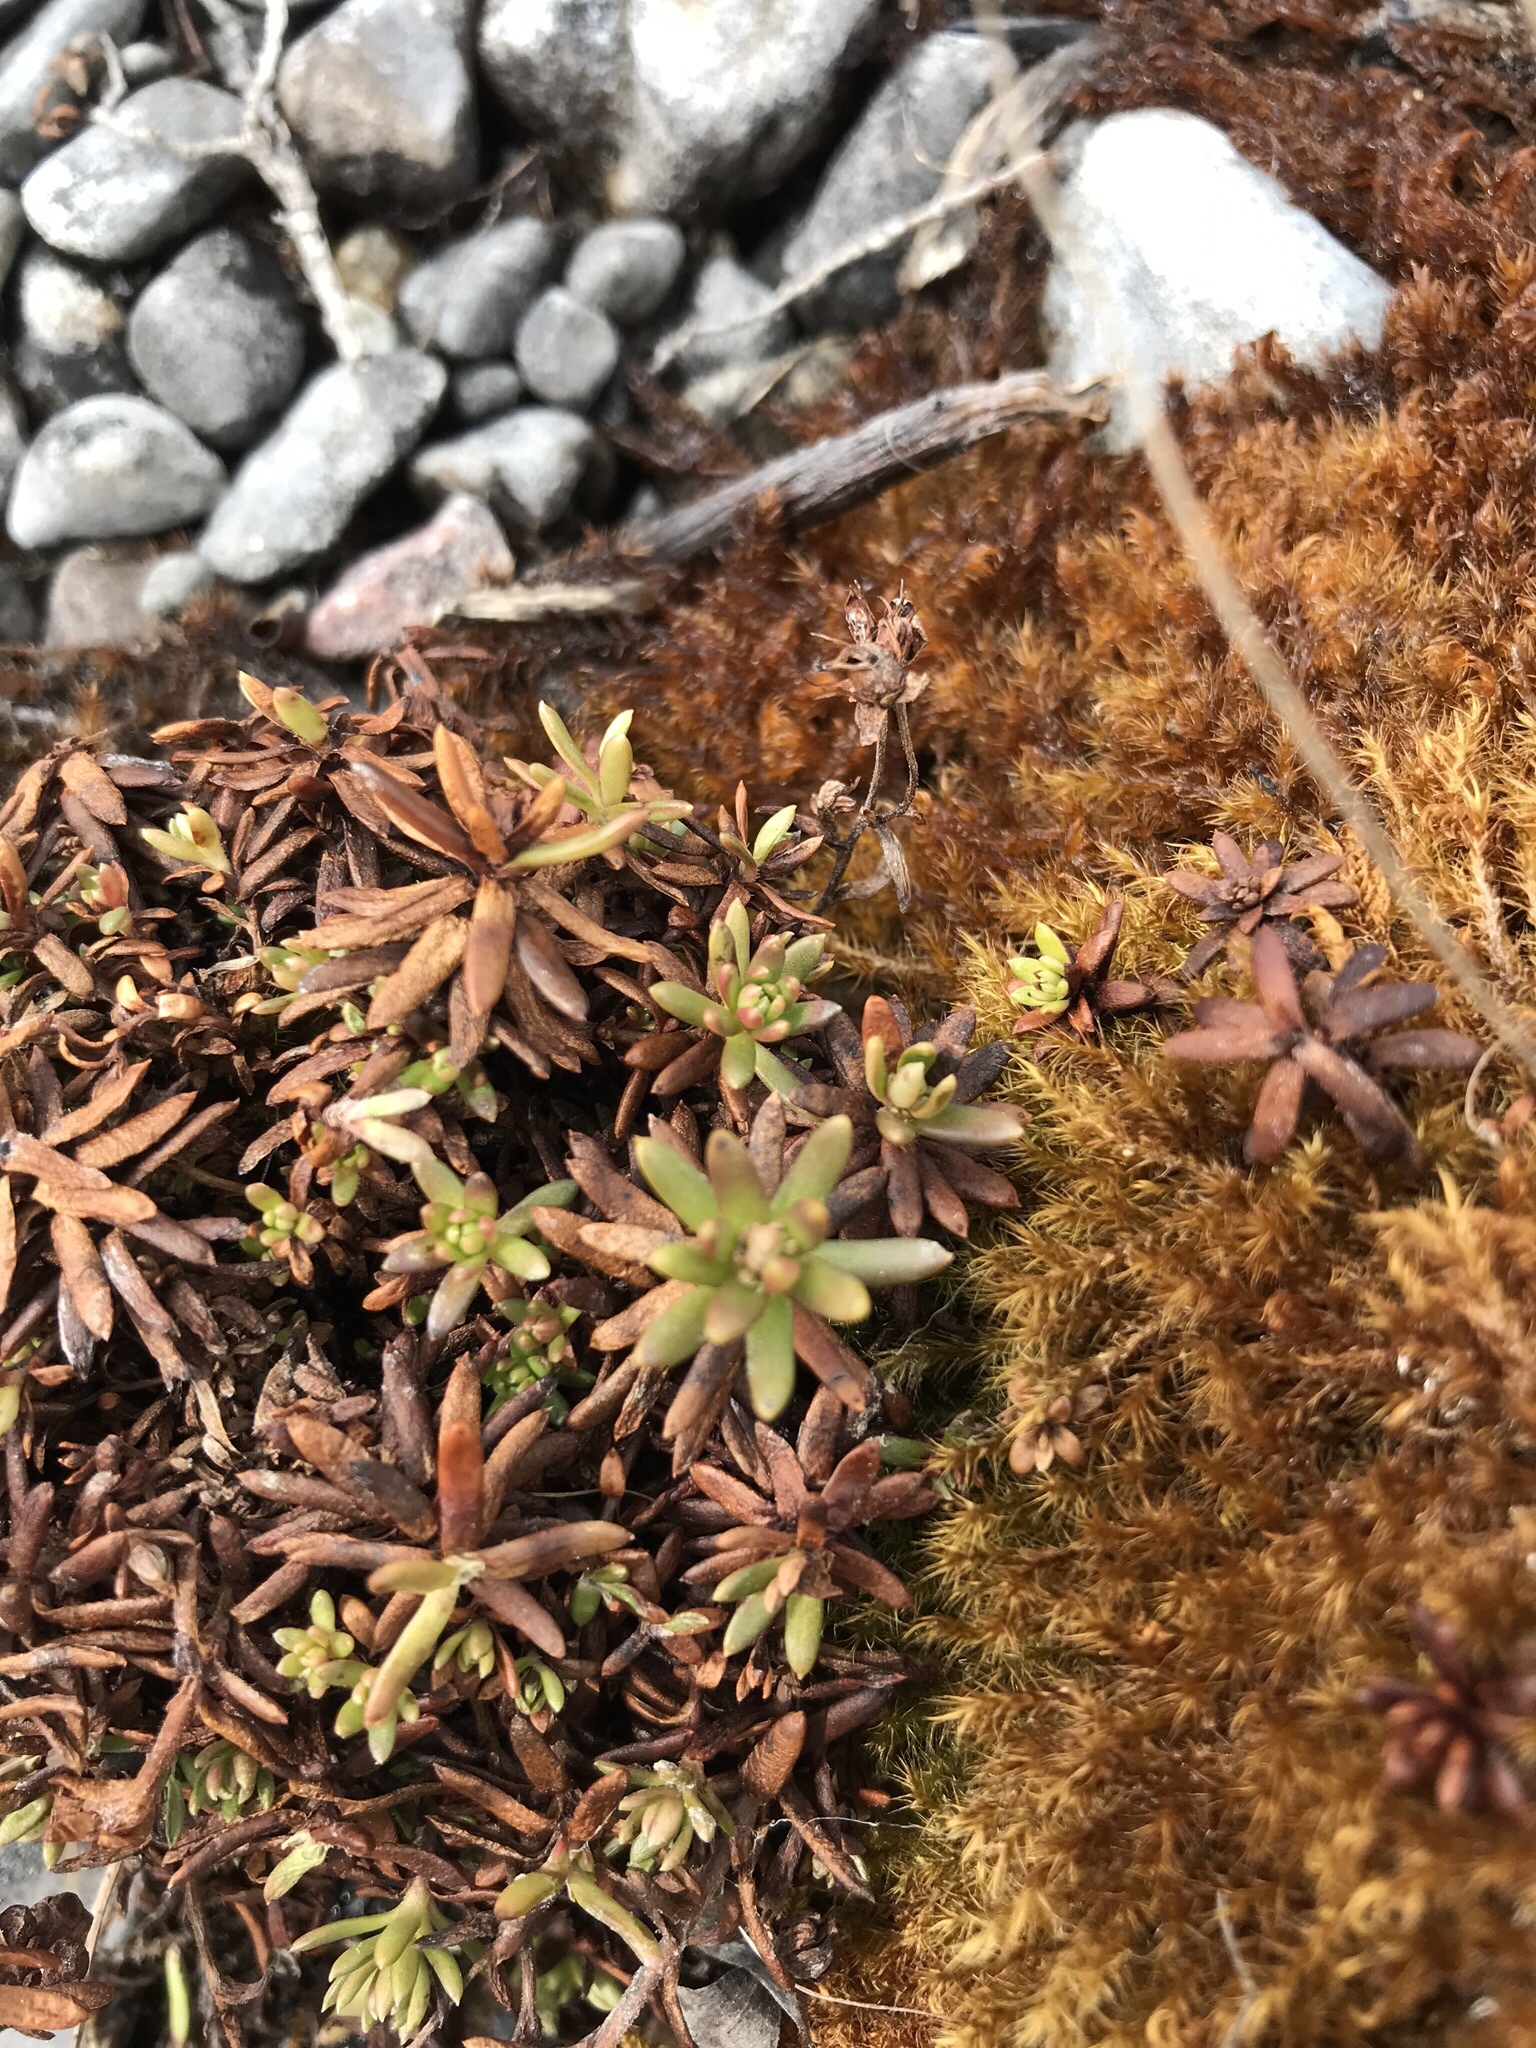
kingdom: Plantae
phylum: Tracheophyta
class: Magnoliopsida
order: Saxifragales
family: Saxifragaceae
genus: Saxifraga
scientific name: Saxifraga aizoides
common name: Yellow mountain saxifrage
